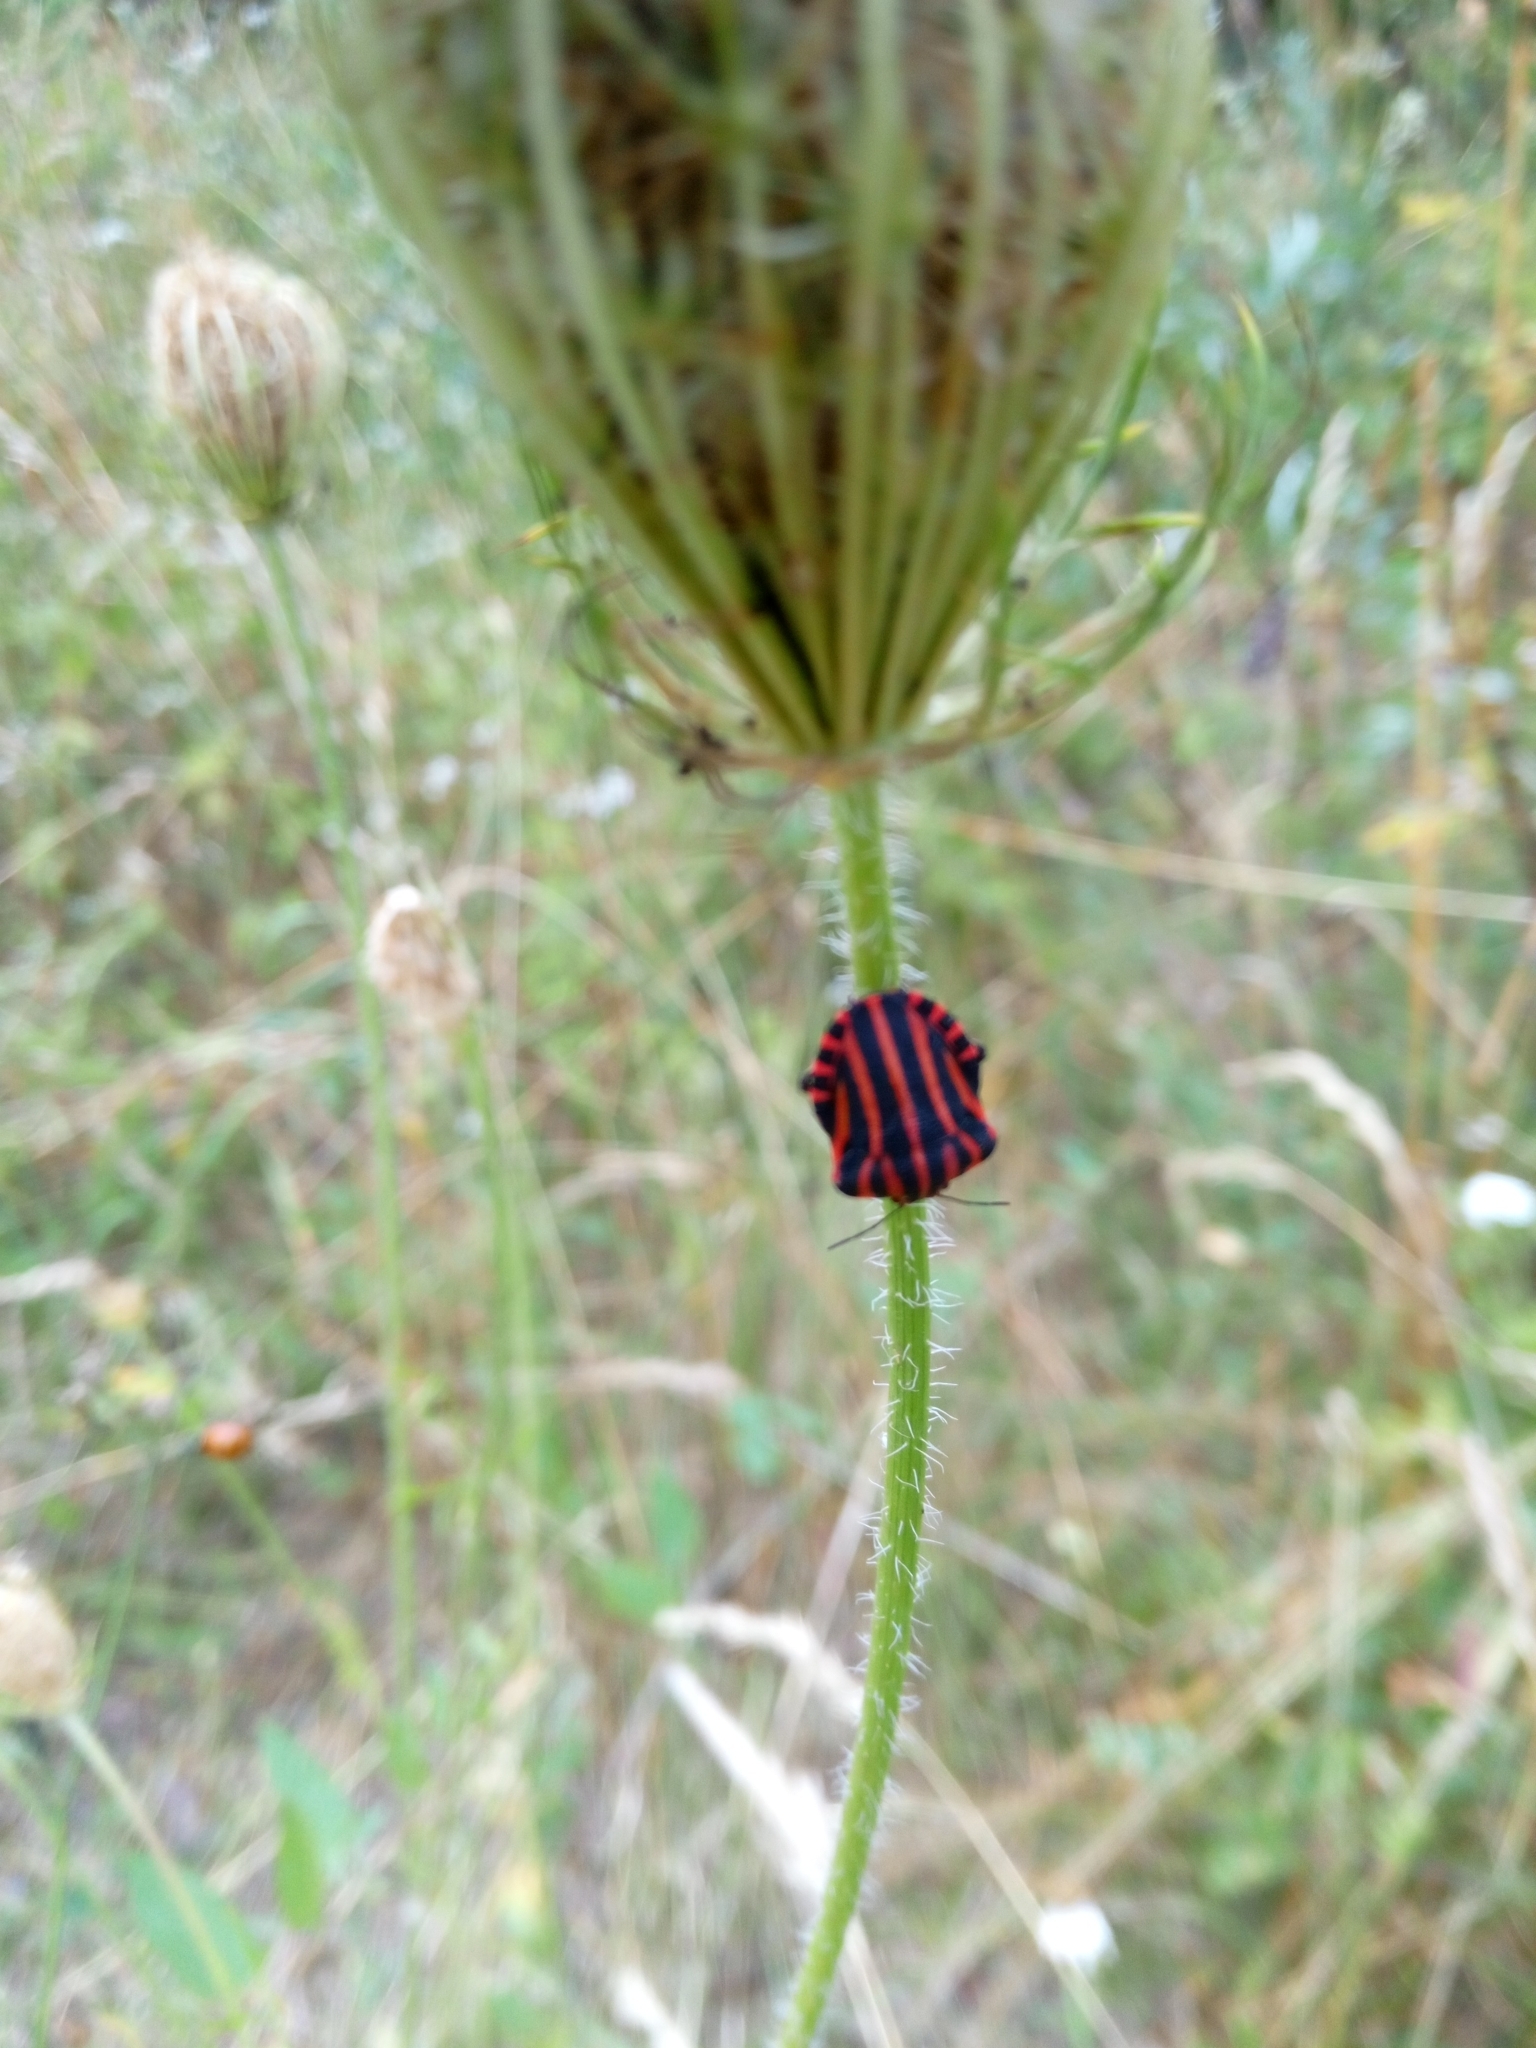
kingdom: Animalia
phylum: Arthropoda
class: Insecta
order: Hemiptera
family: Pentatomidae
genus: Graphosoma
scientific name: Graphosoma italicum
